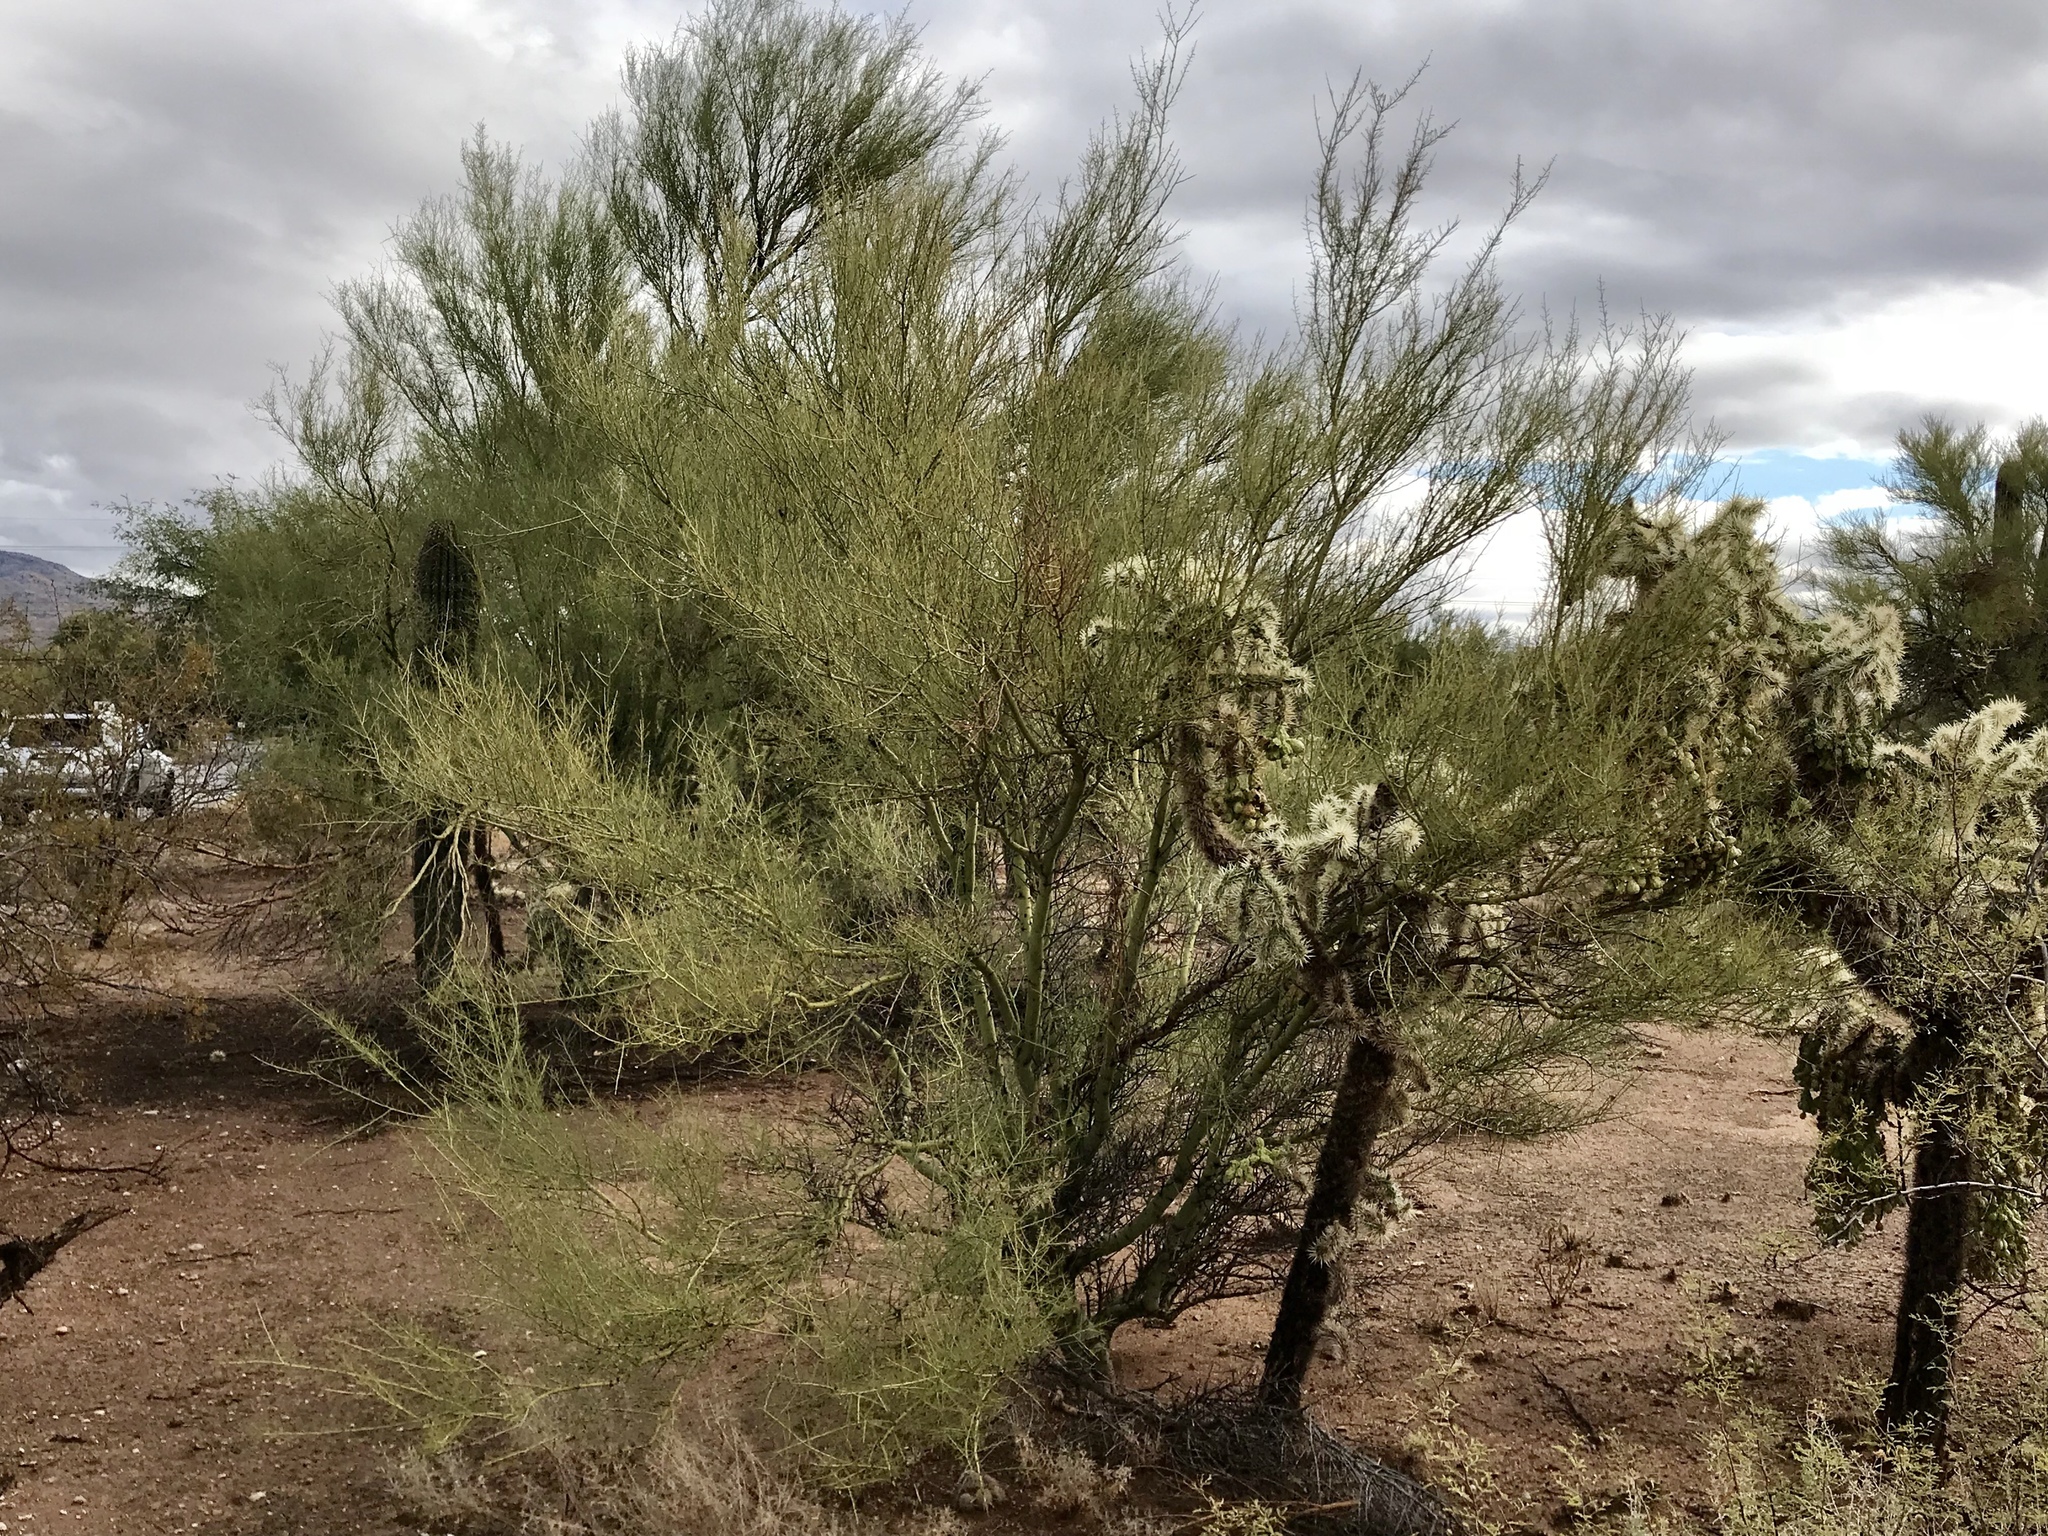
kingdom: Plantae
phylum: Tracheophyta
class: Magnoliopsida
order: Fabales
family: Fabaceae
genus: Parkinsonia
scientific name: Parkinsonia microphylla
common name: Yellow paloverde
